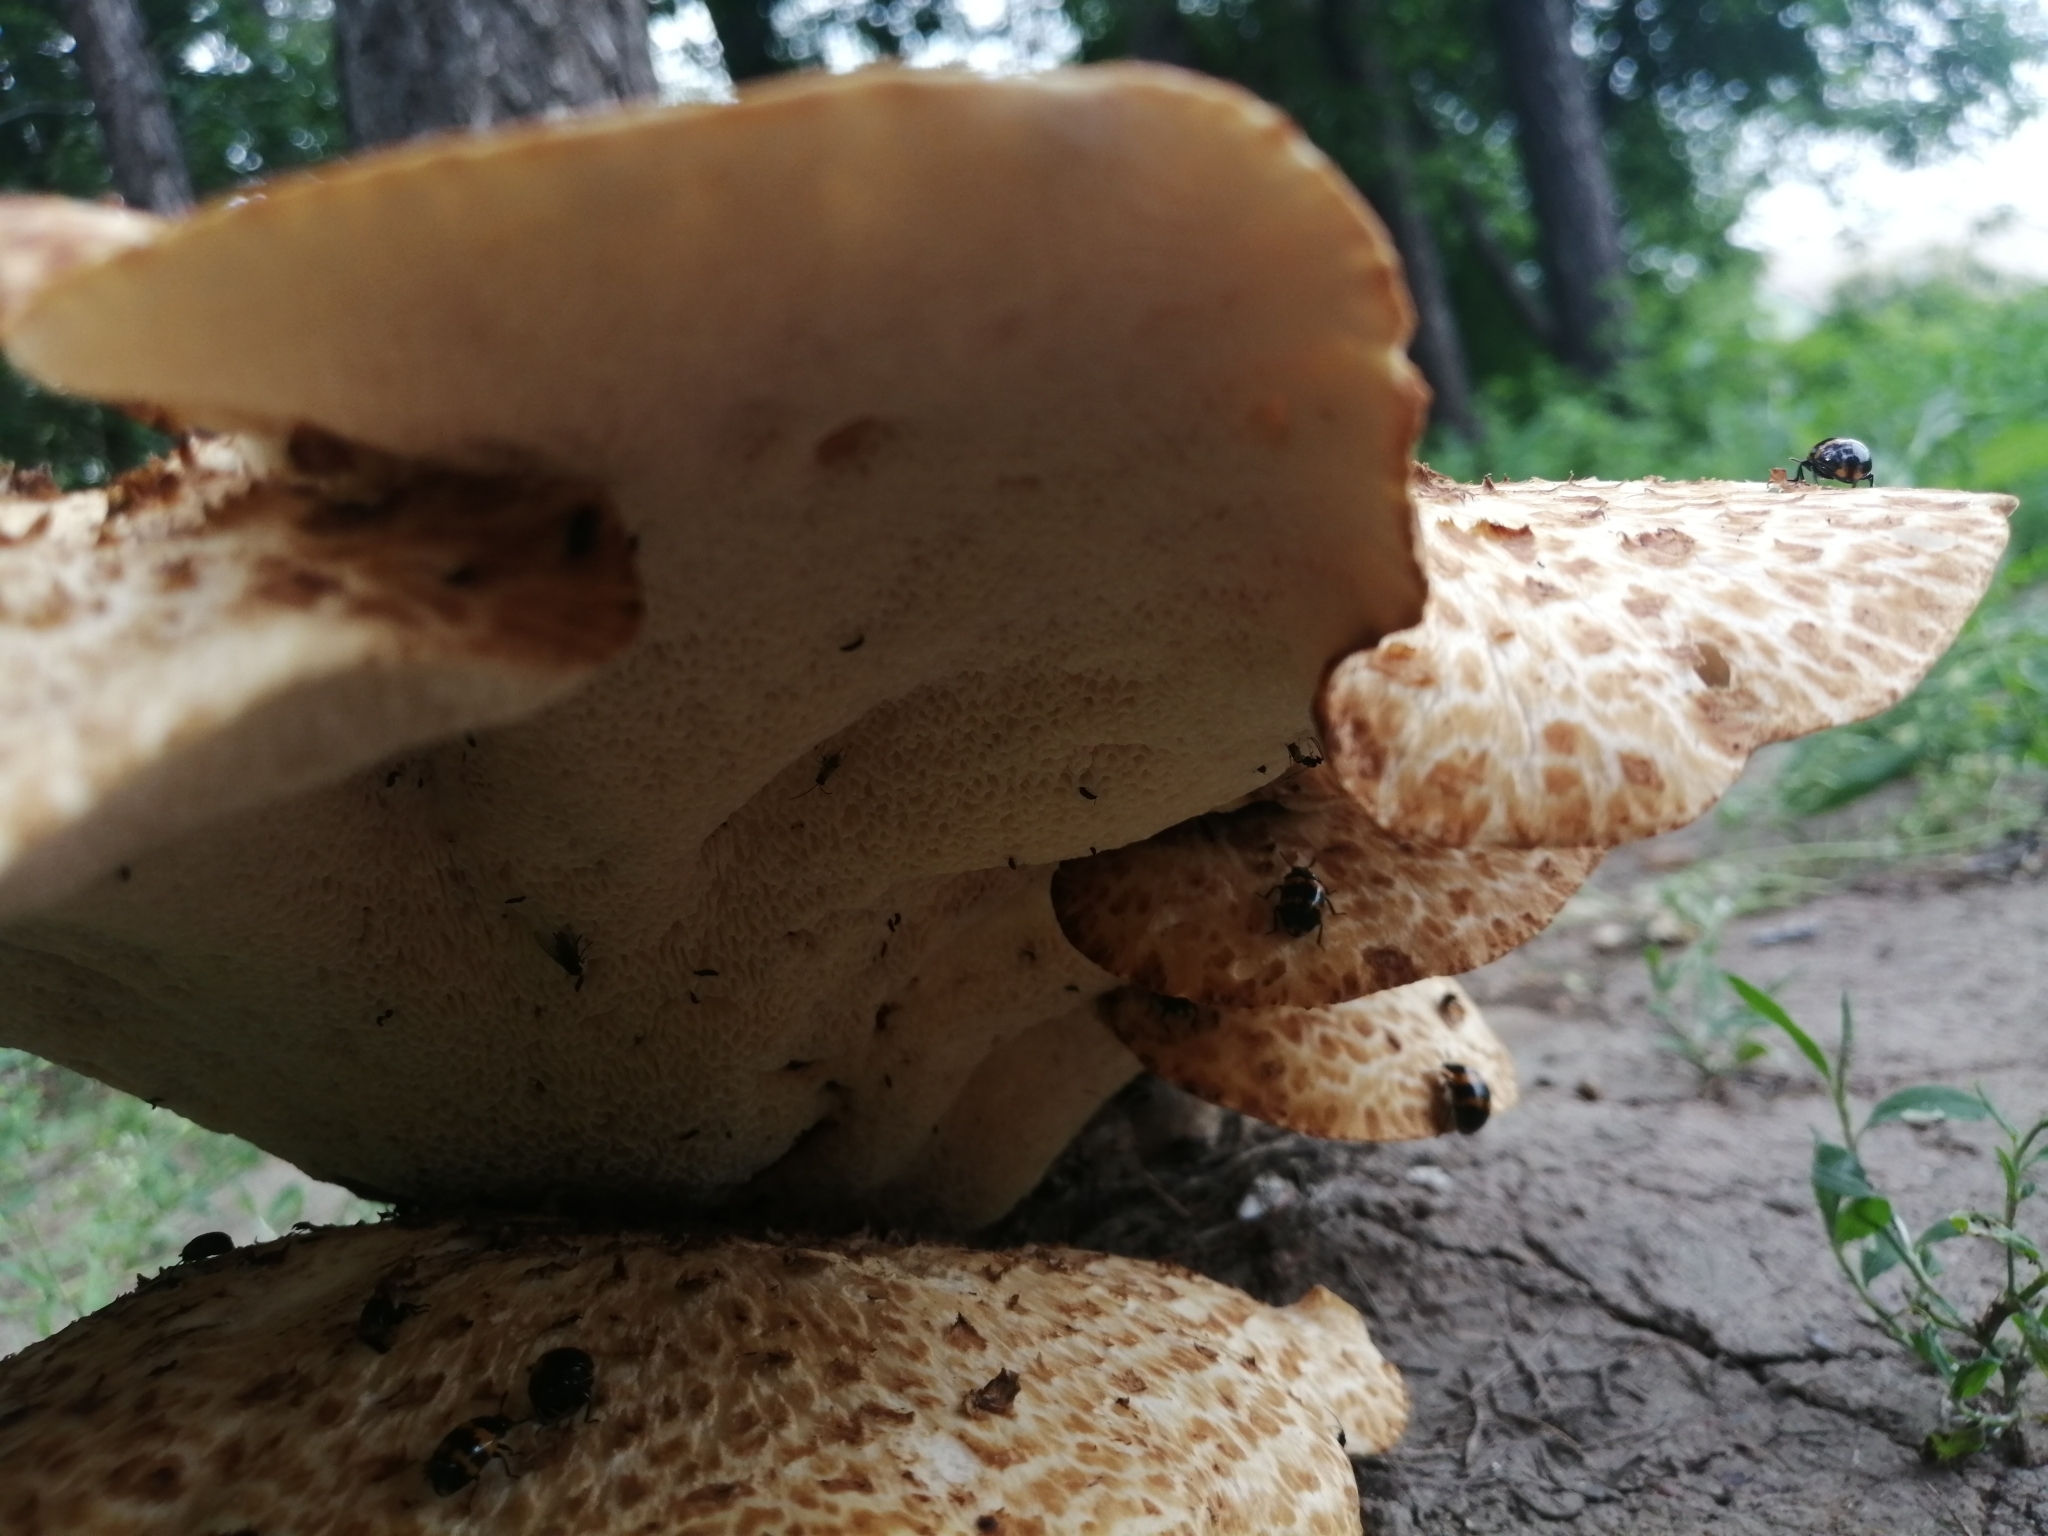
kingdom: Fungi
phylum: Basidiomycota
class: Agaricomycetes
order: Polyporales
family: Polyporaceae
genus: Cerioporus
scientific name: Cerioporus squamosus
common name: Dryad's saddle
